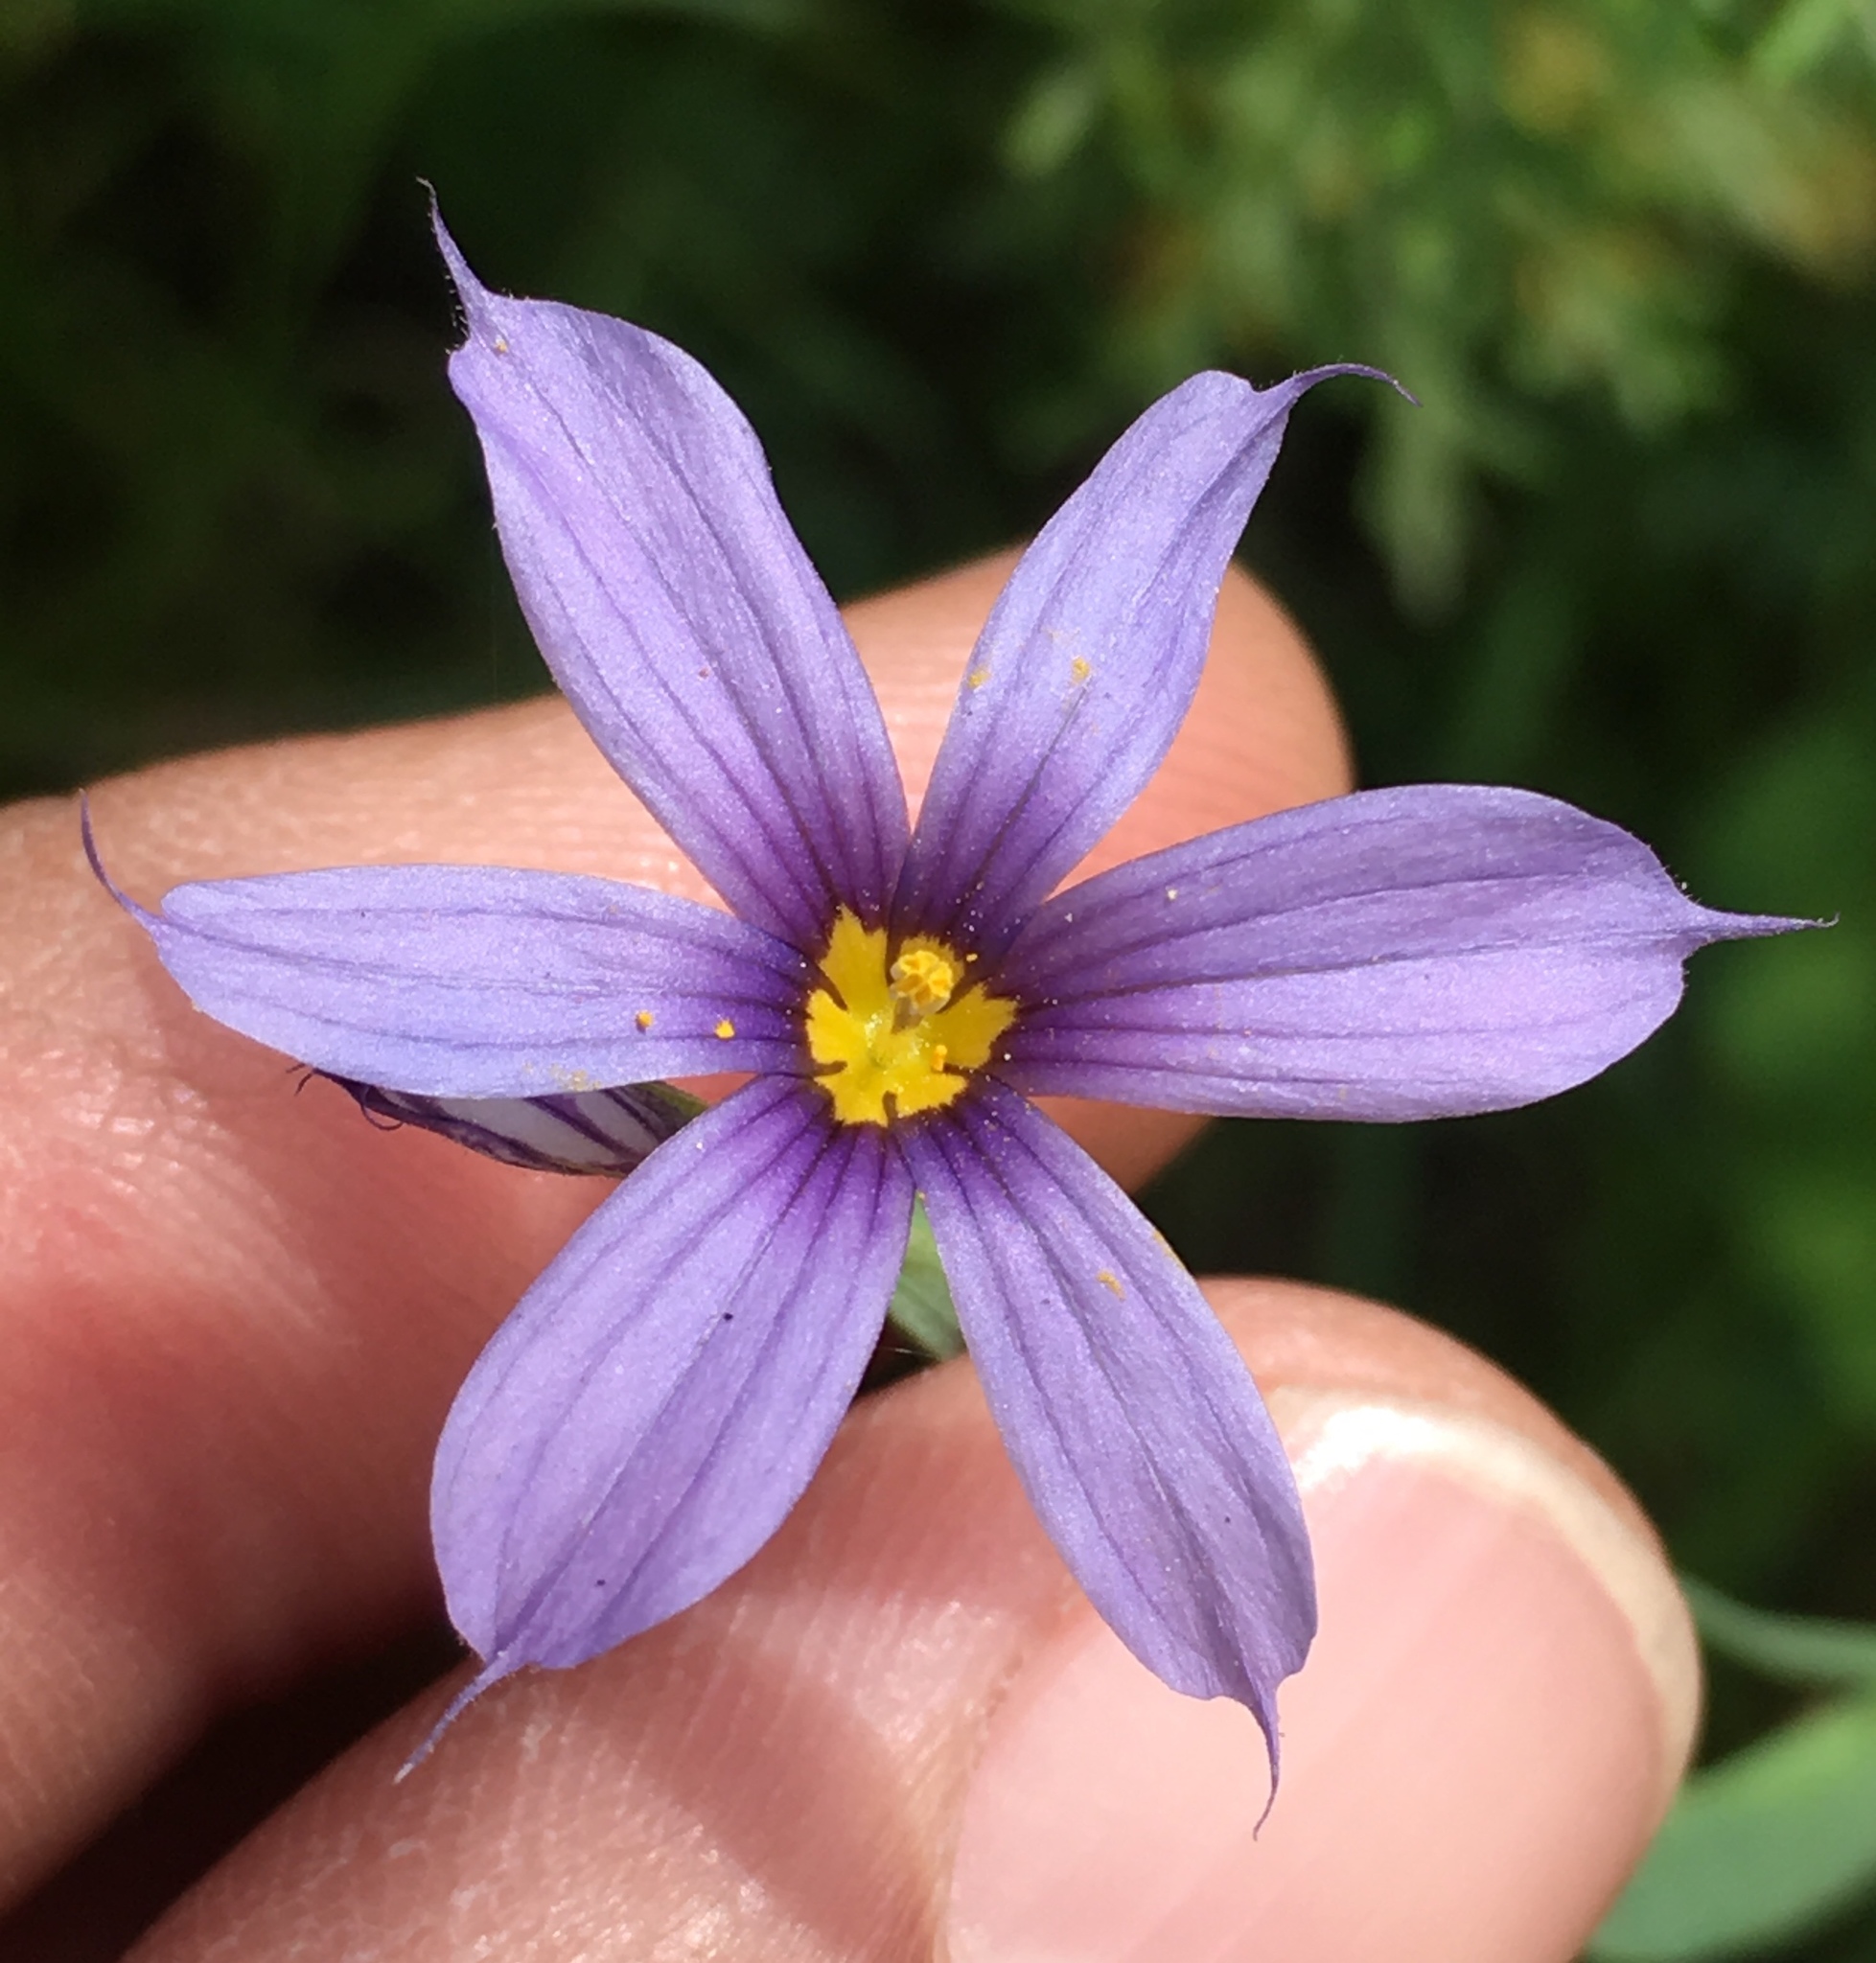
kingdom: Plantae
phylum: Tracheophyta
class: Liliopsida
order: Asparagales
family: Iridaceae
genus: Sisyrinchium
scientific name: Sisyrinchium bellum
